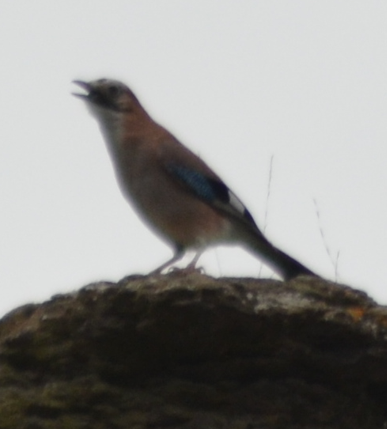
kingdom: Animalia
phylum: Chordata
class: Aves
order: Passeriformes
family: Corvidae
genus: Garrulus
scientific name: Garrulus glandarius
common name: Eurasian jay
